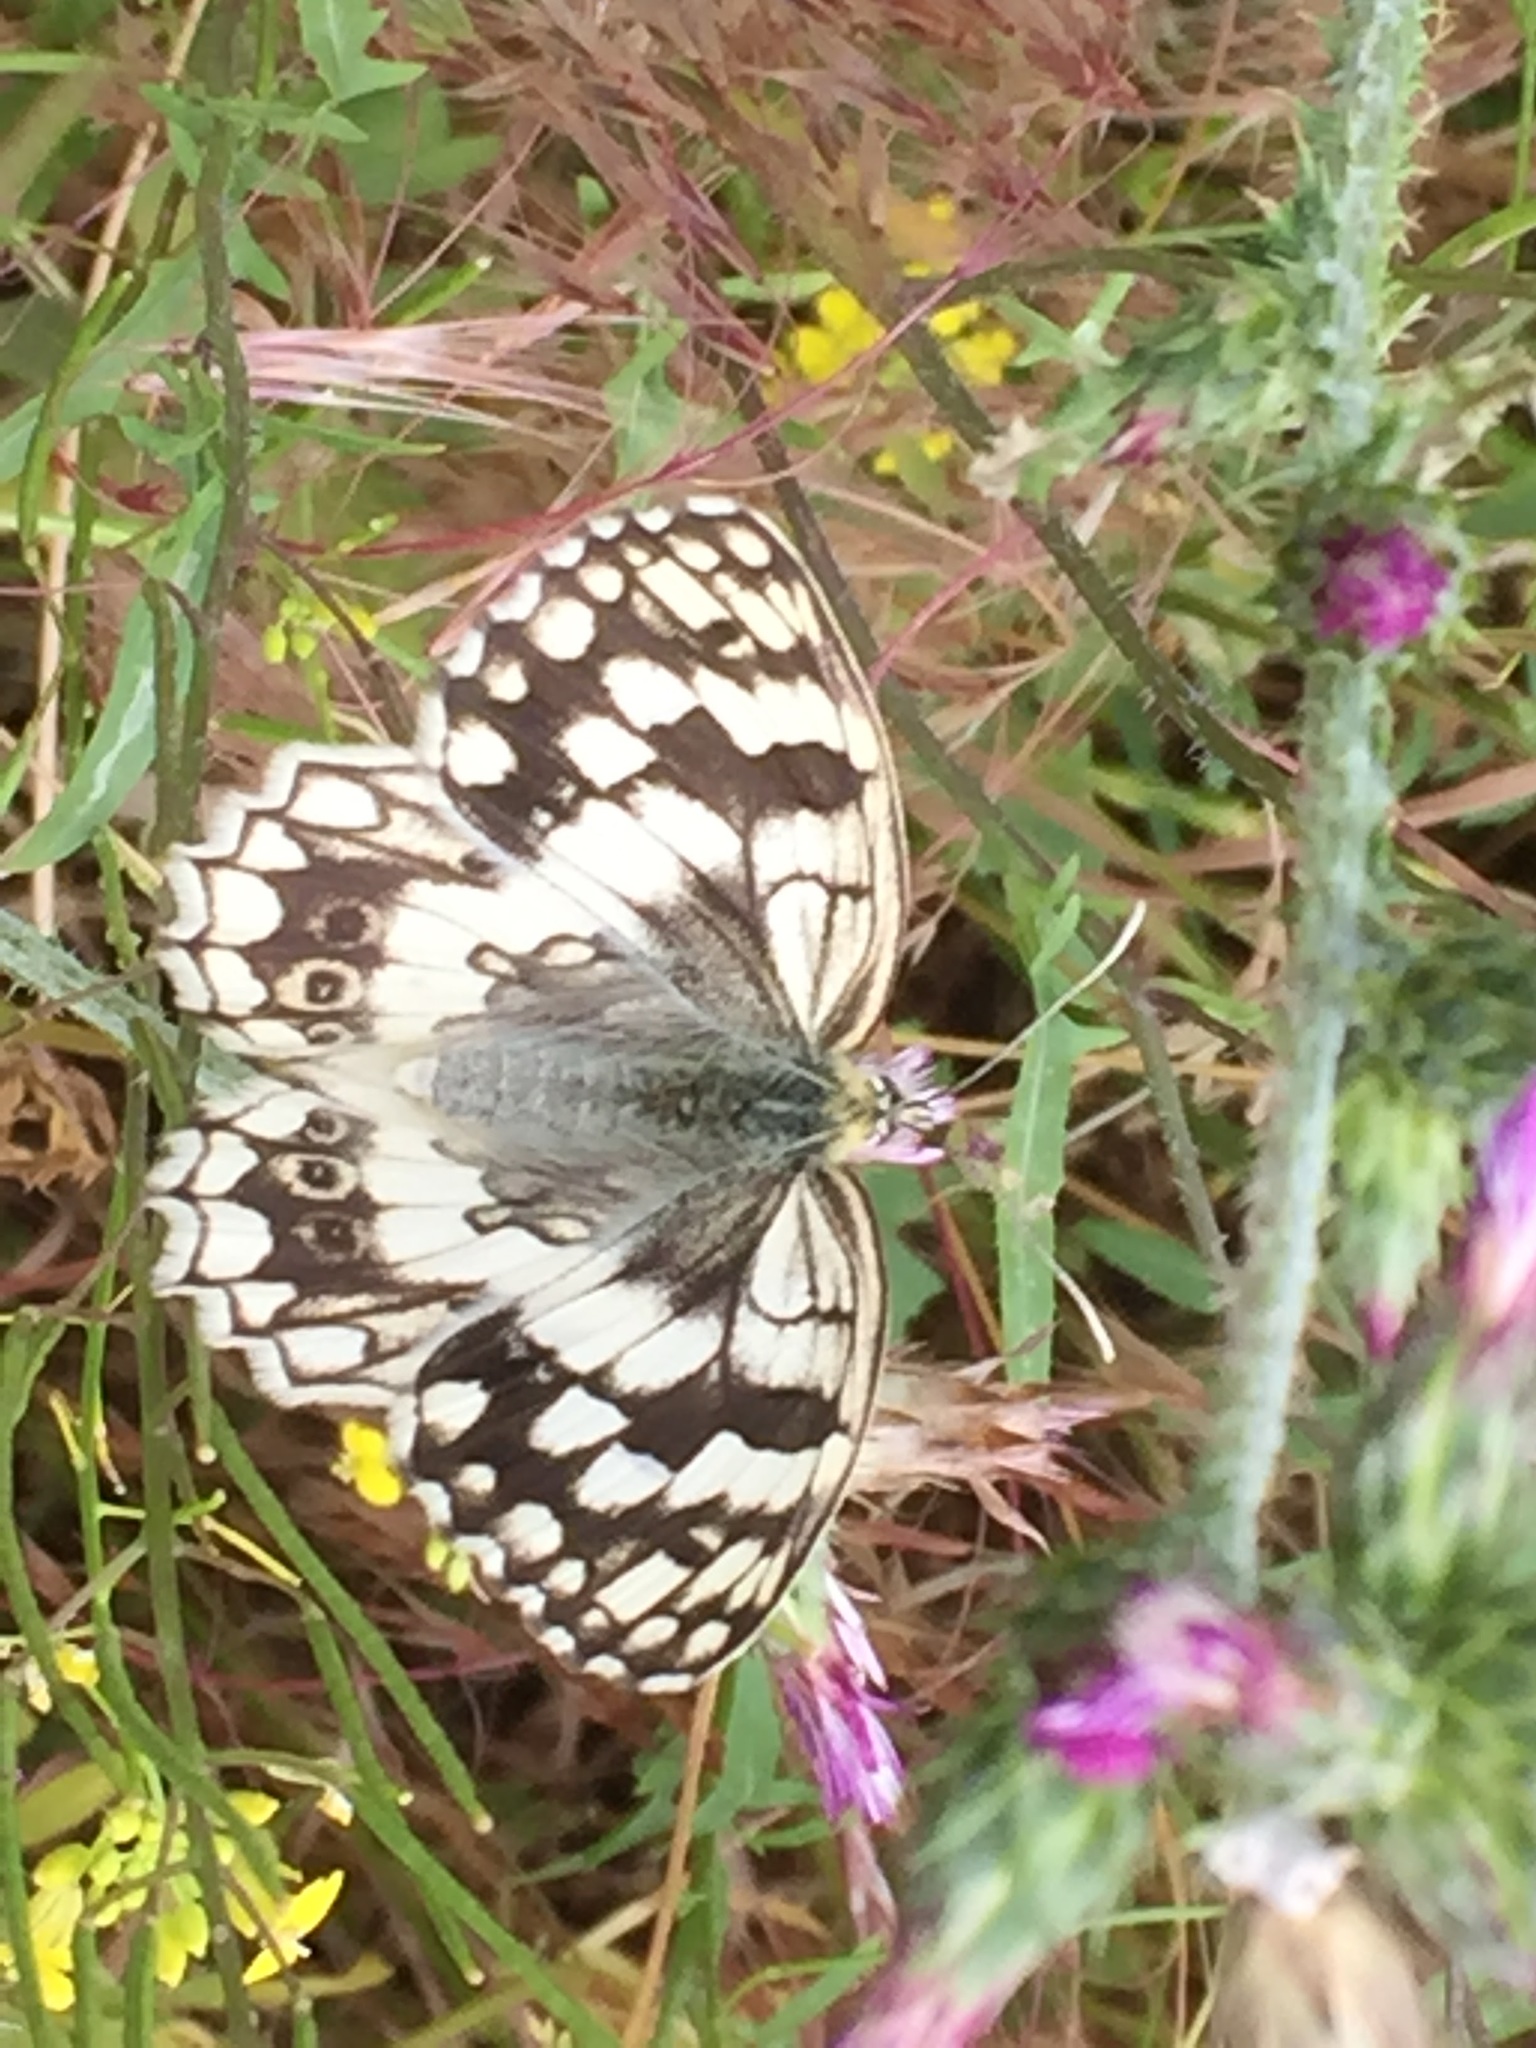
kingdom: Animalia
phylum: Arthropoda
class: Insecta
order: Lepidoptera
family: Nymphalidae
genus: Melanargia
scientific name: Melanargia larissa
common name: Balkan marbled white
